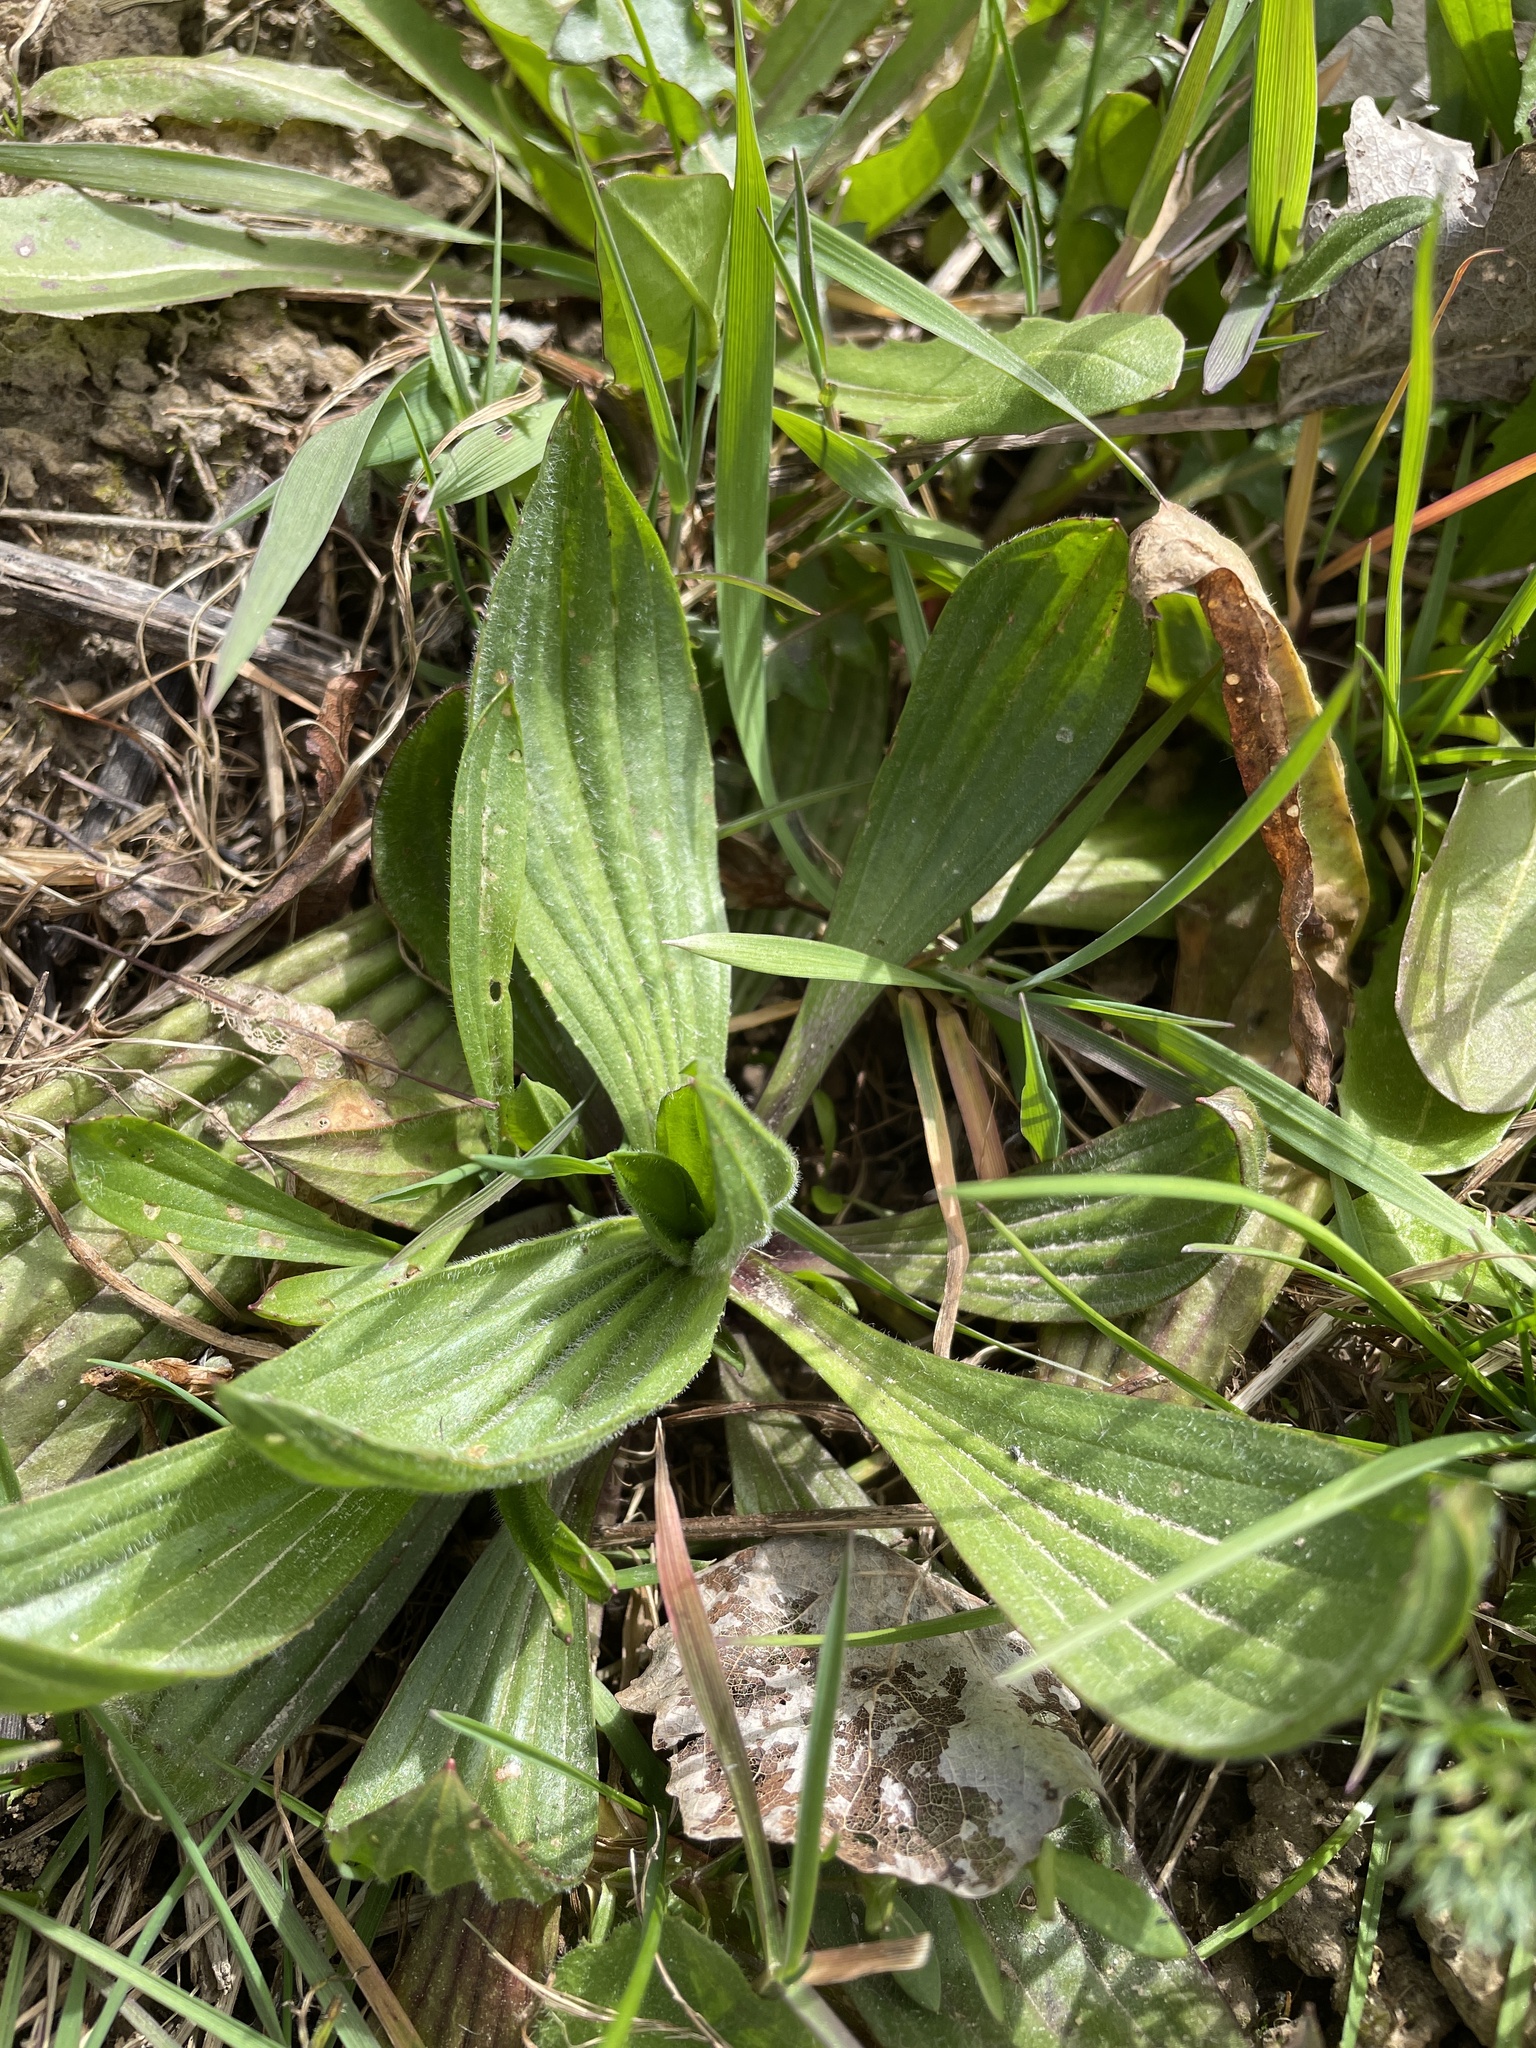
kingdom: Plantae
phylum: Tracheophyta
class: Magnoliopsida
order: Lamiales
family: Plantaginaceae
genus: Plantago
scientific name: Plantago lanceolata
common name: Ribwort plantain
